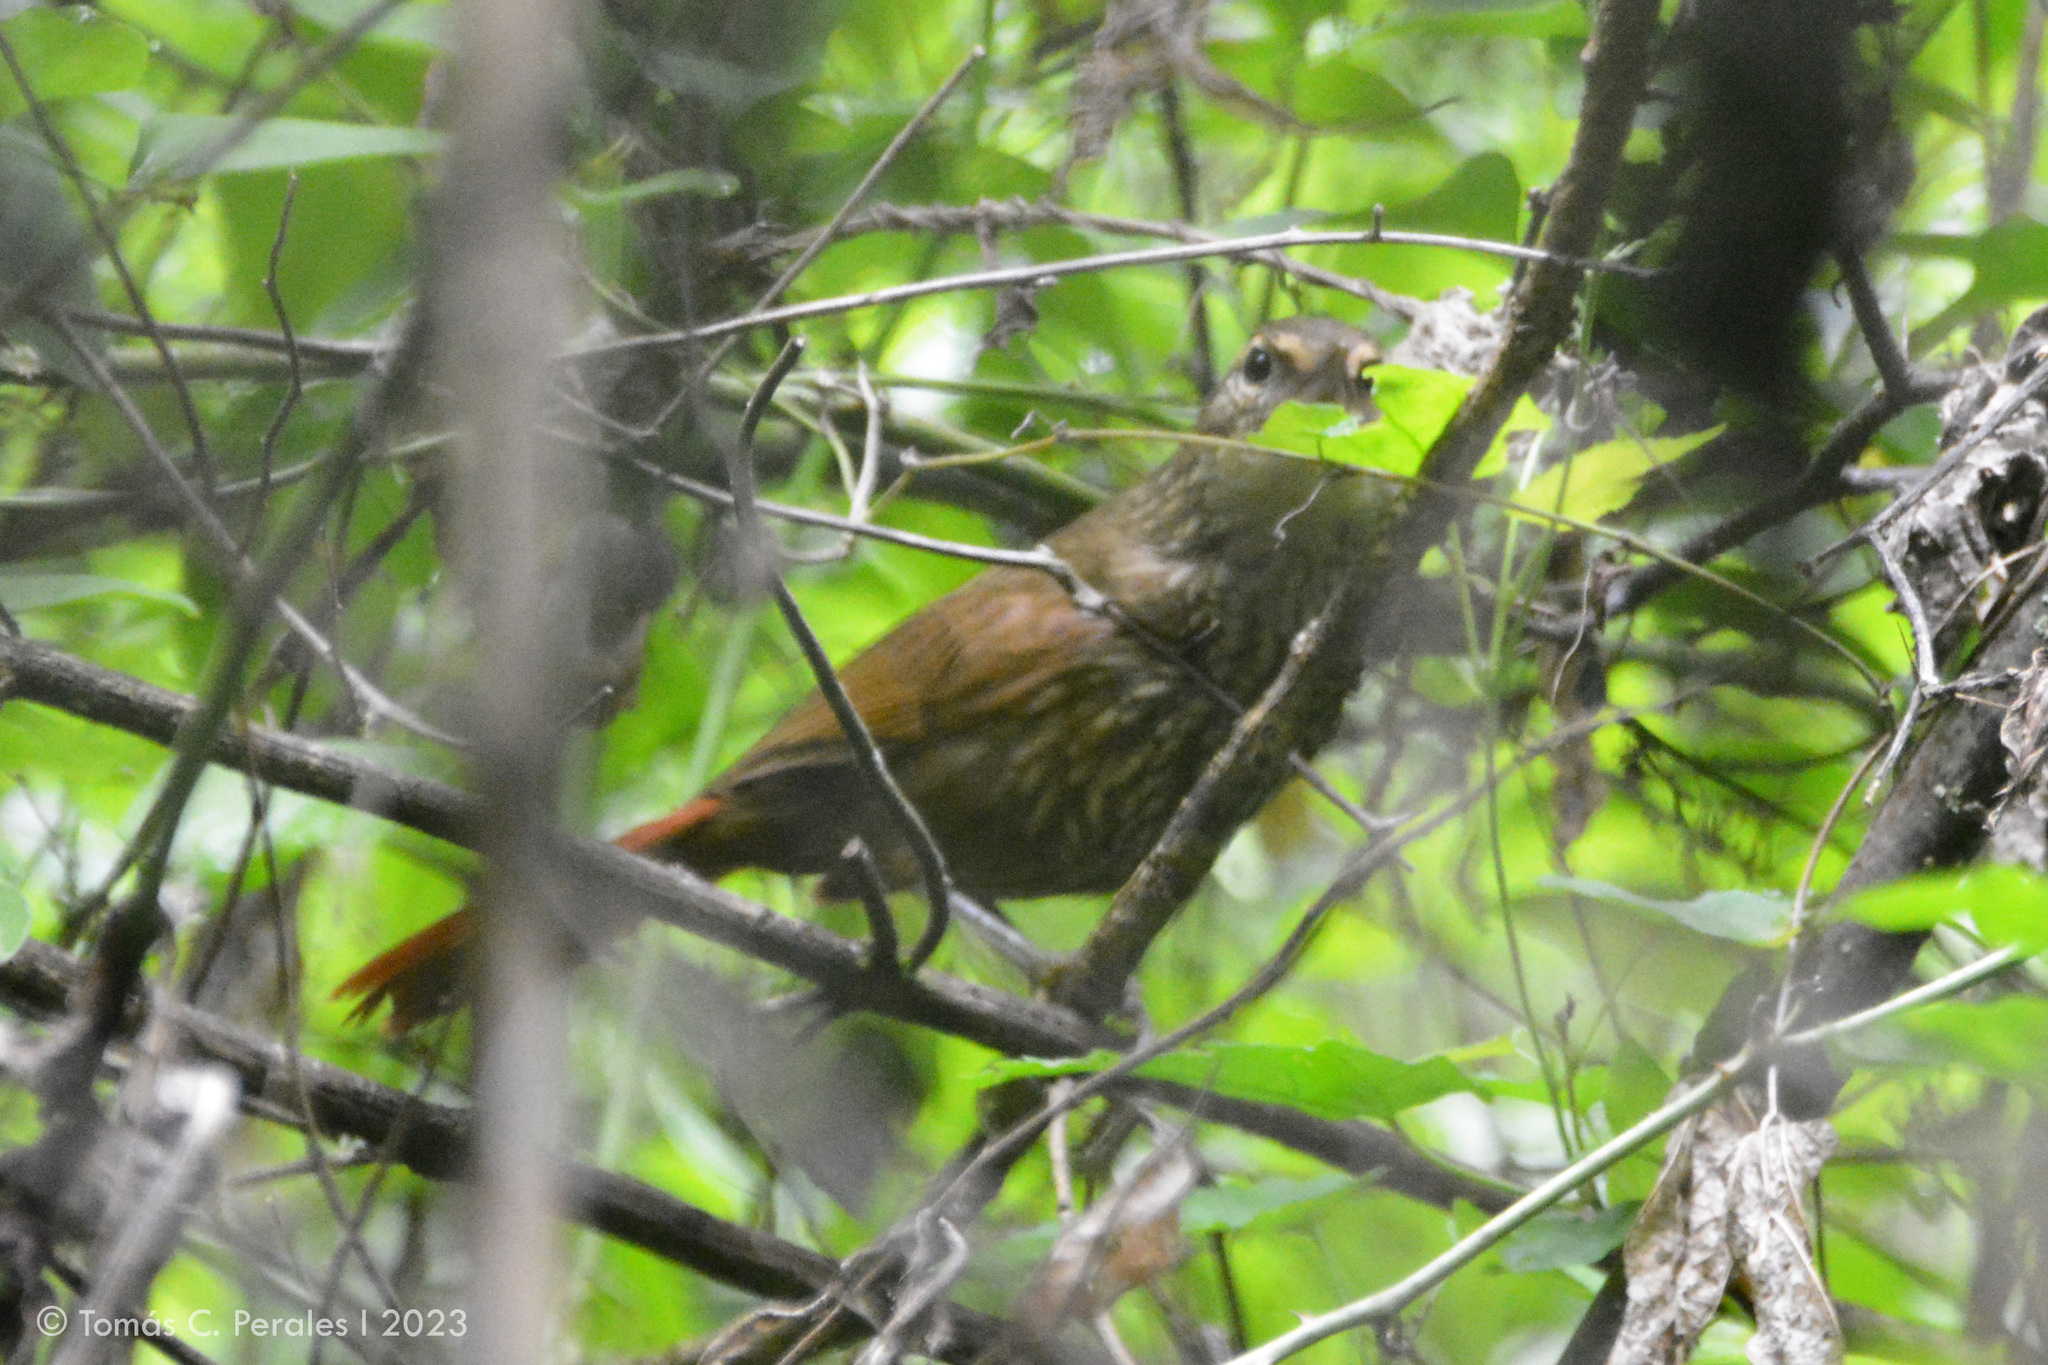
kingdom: Animalia
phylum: Chordata
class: Aves
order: Passeriformes
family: Furnariidae
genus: Syndactyla
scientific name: Syndactyla rufosuperciliata
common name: Buff-browed foliage-gleaner
